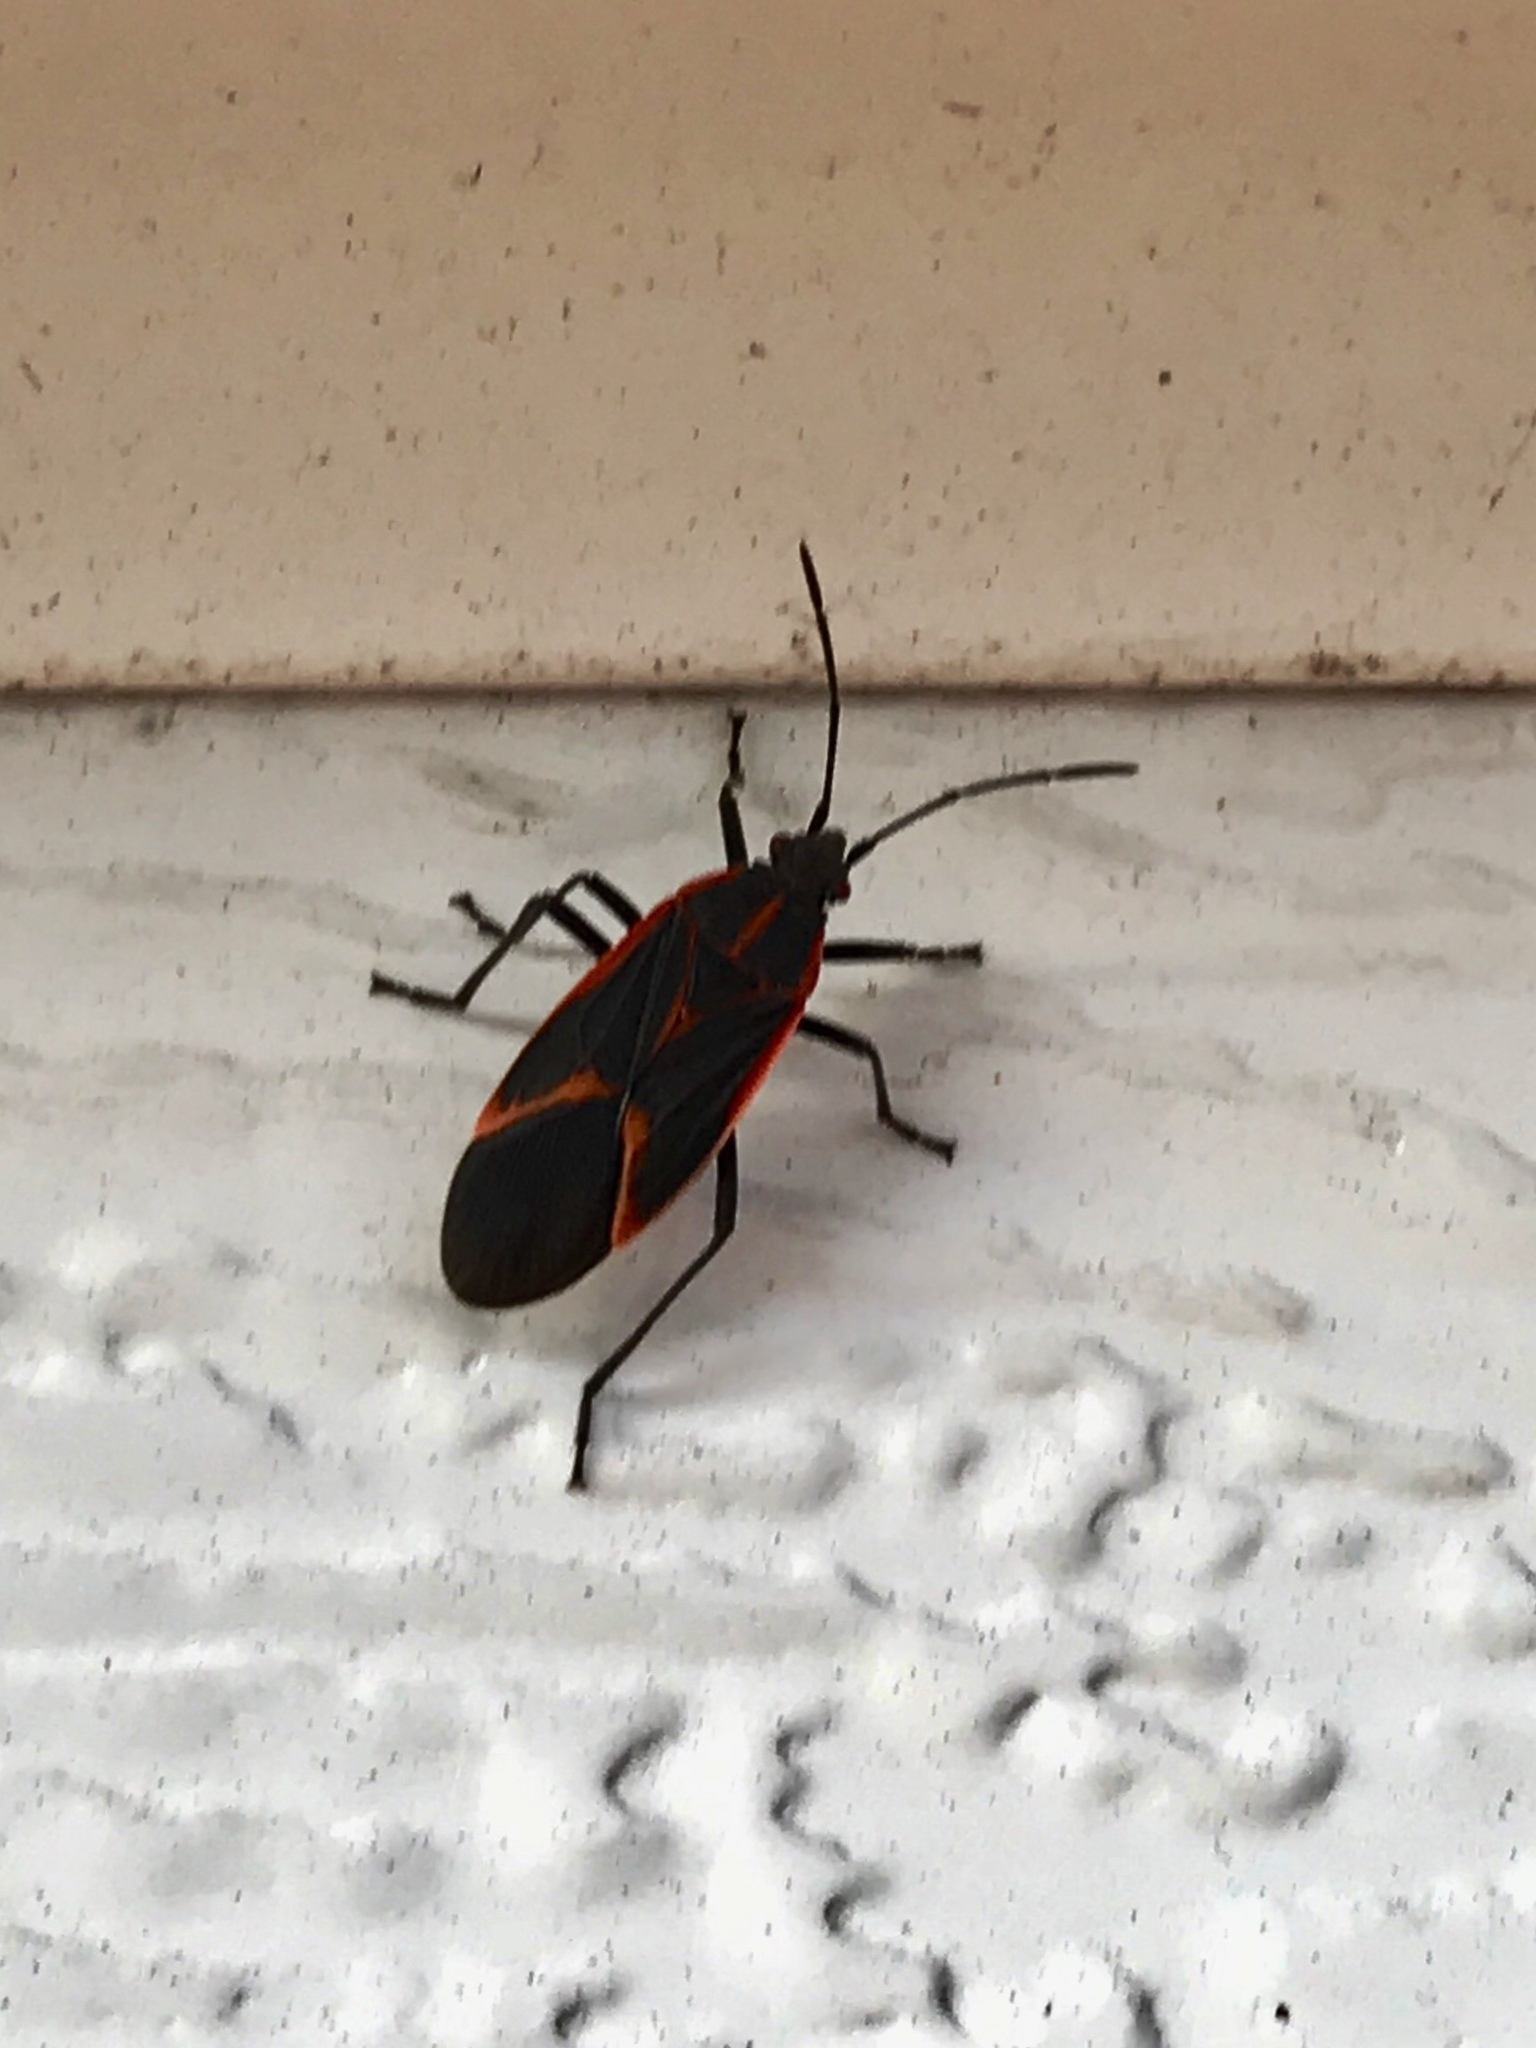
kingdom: Animalia
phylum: Arthropoda
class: Insecta
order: Hemiptera
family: Rhopalidae
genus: Boisea
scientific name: Boisea trivittata
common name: Boxelder bug
